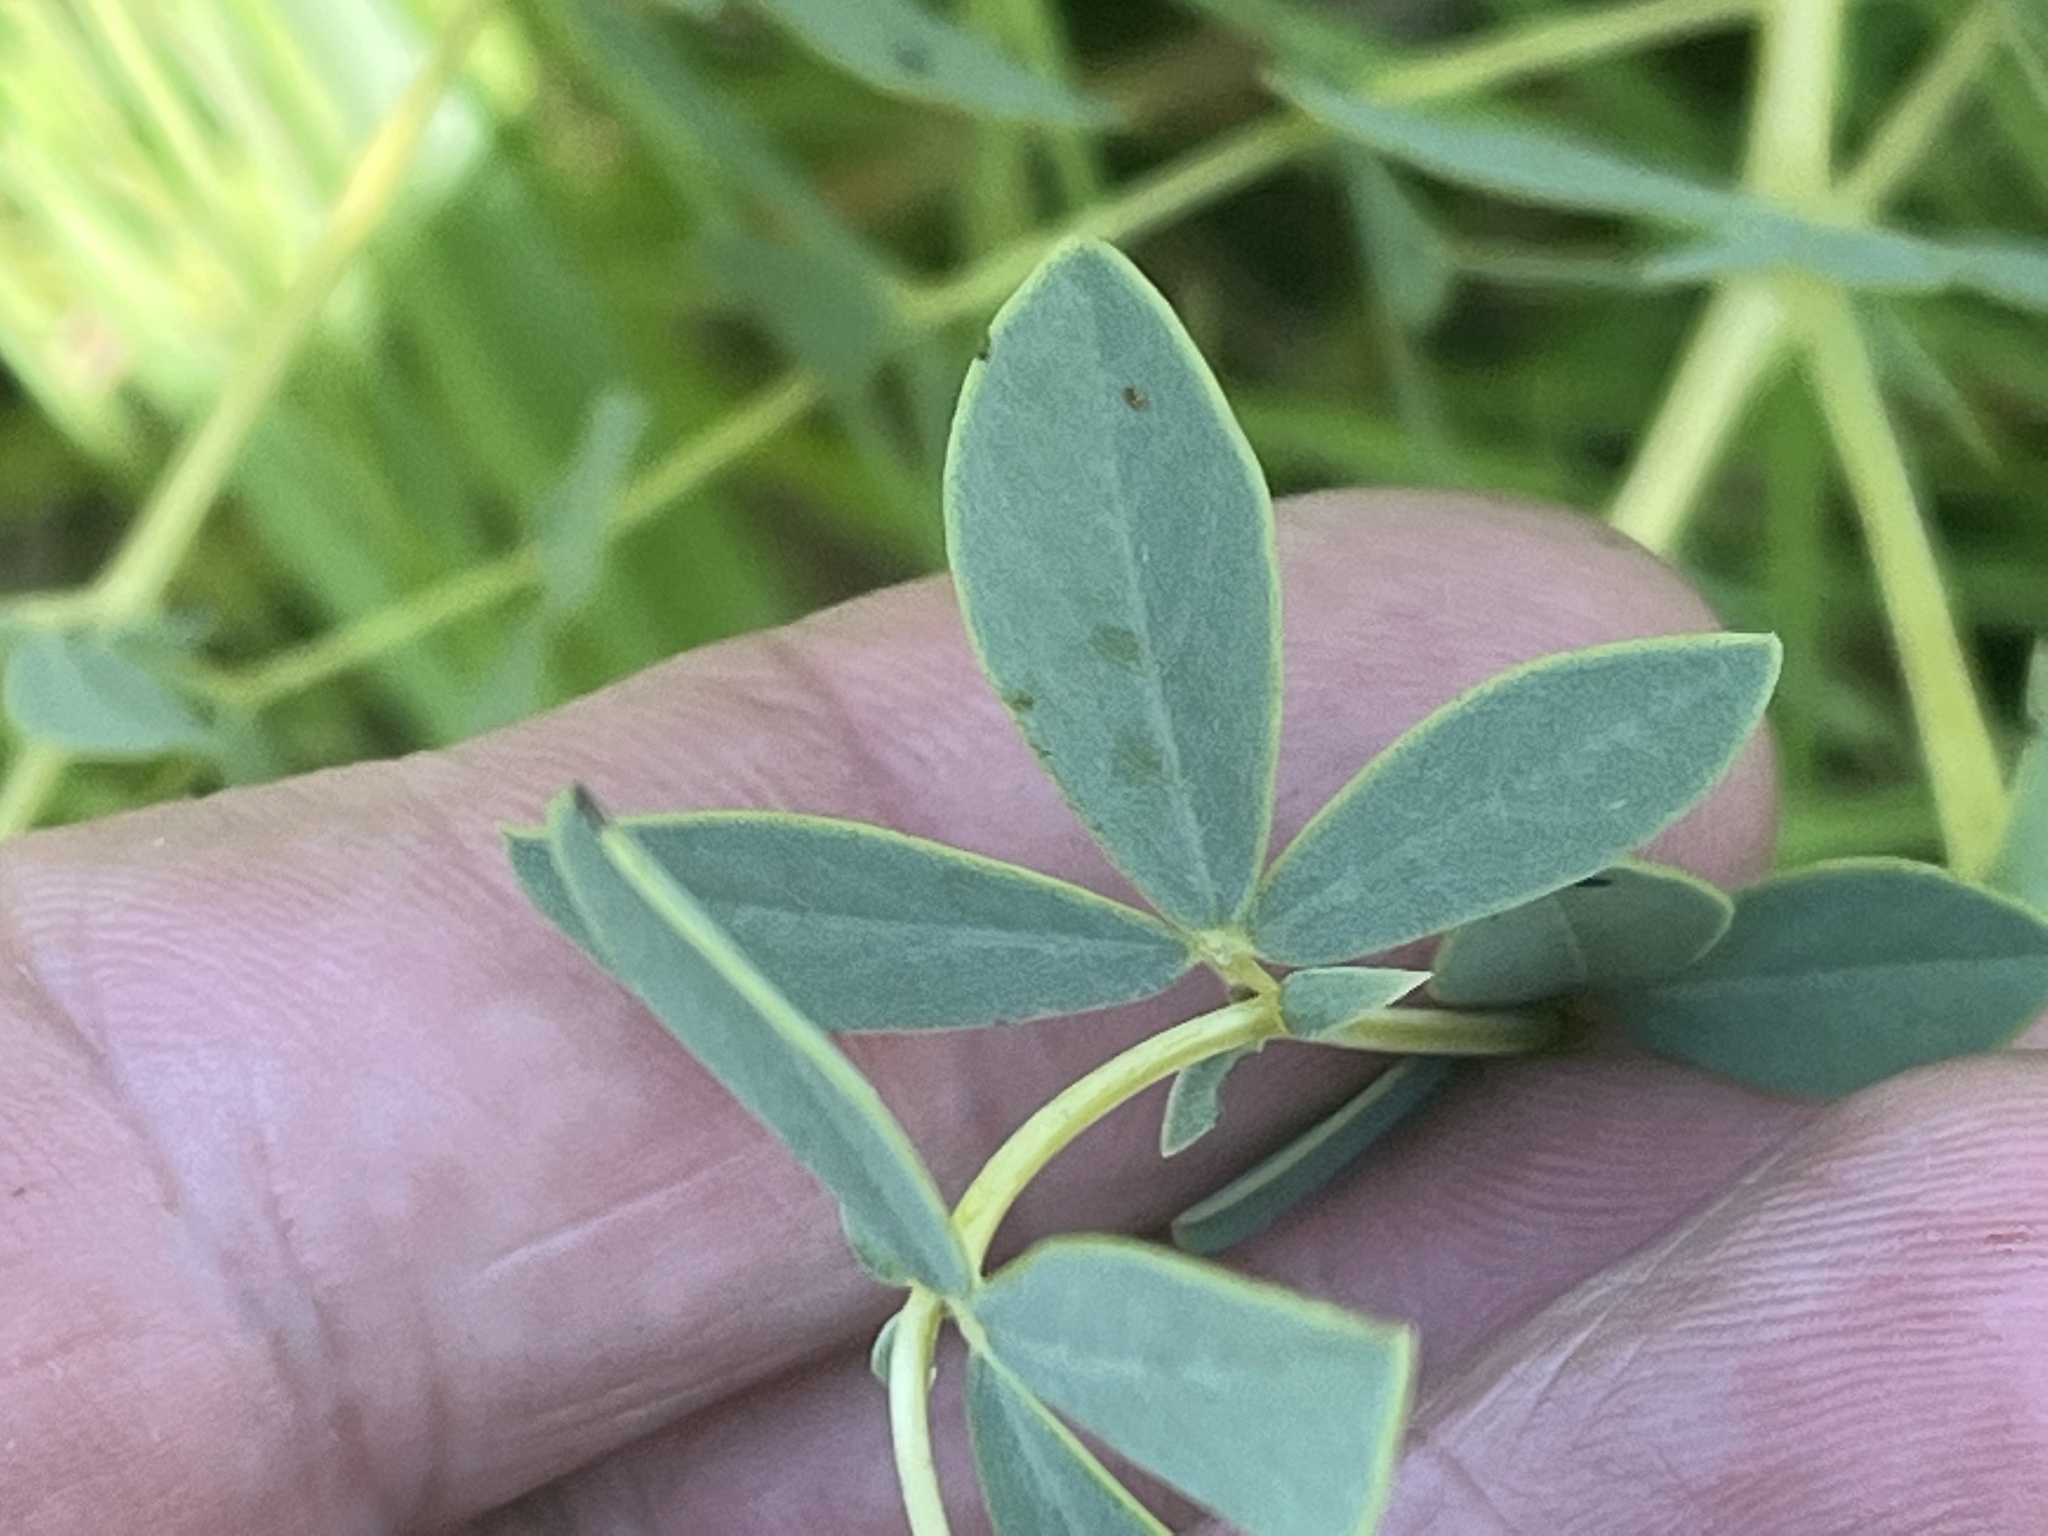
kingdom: Plantae
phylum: Tracheophyta
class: Magnoliopsida
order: Fabales
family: Fabaceae
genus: Baptisia
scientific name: Baptisia australis
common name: Blue false indigo
